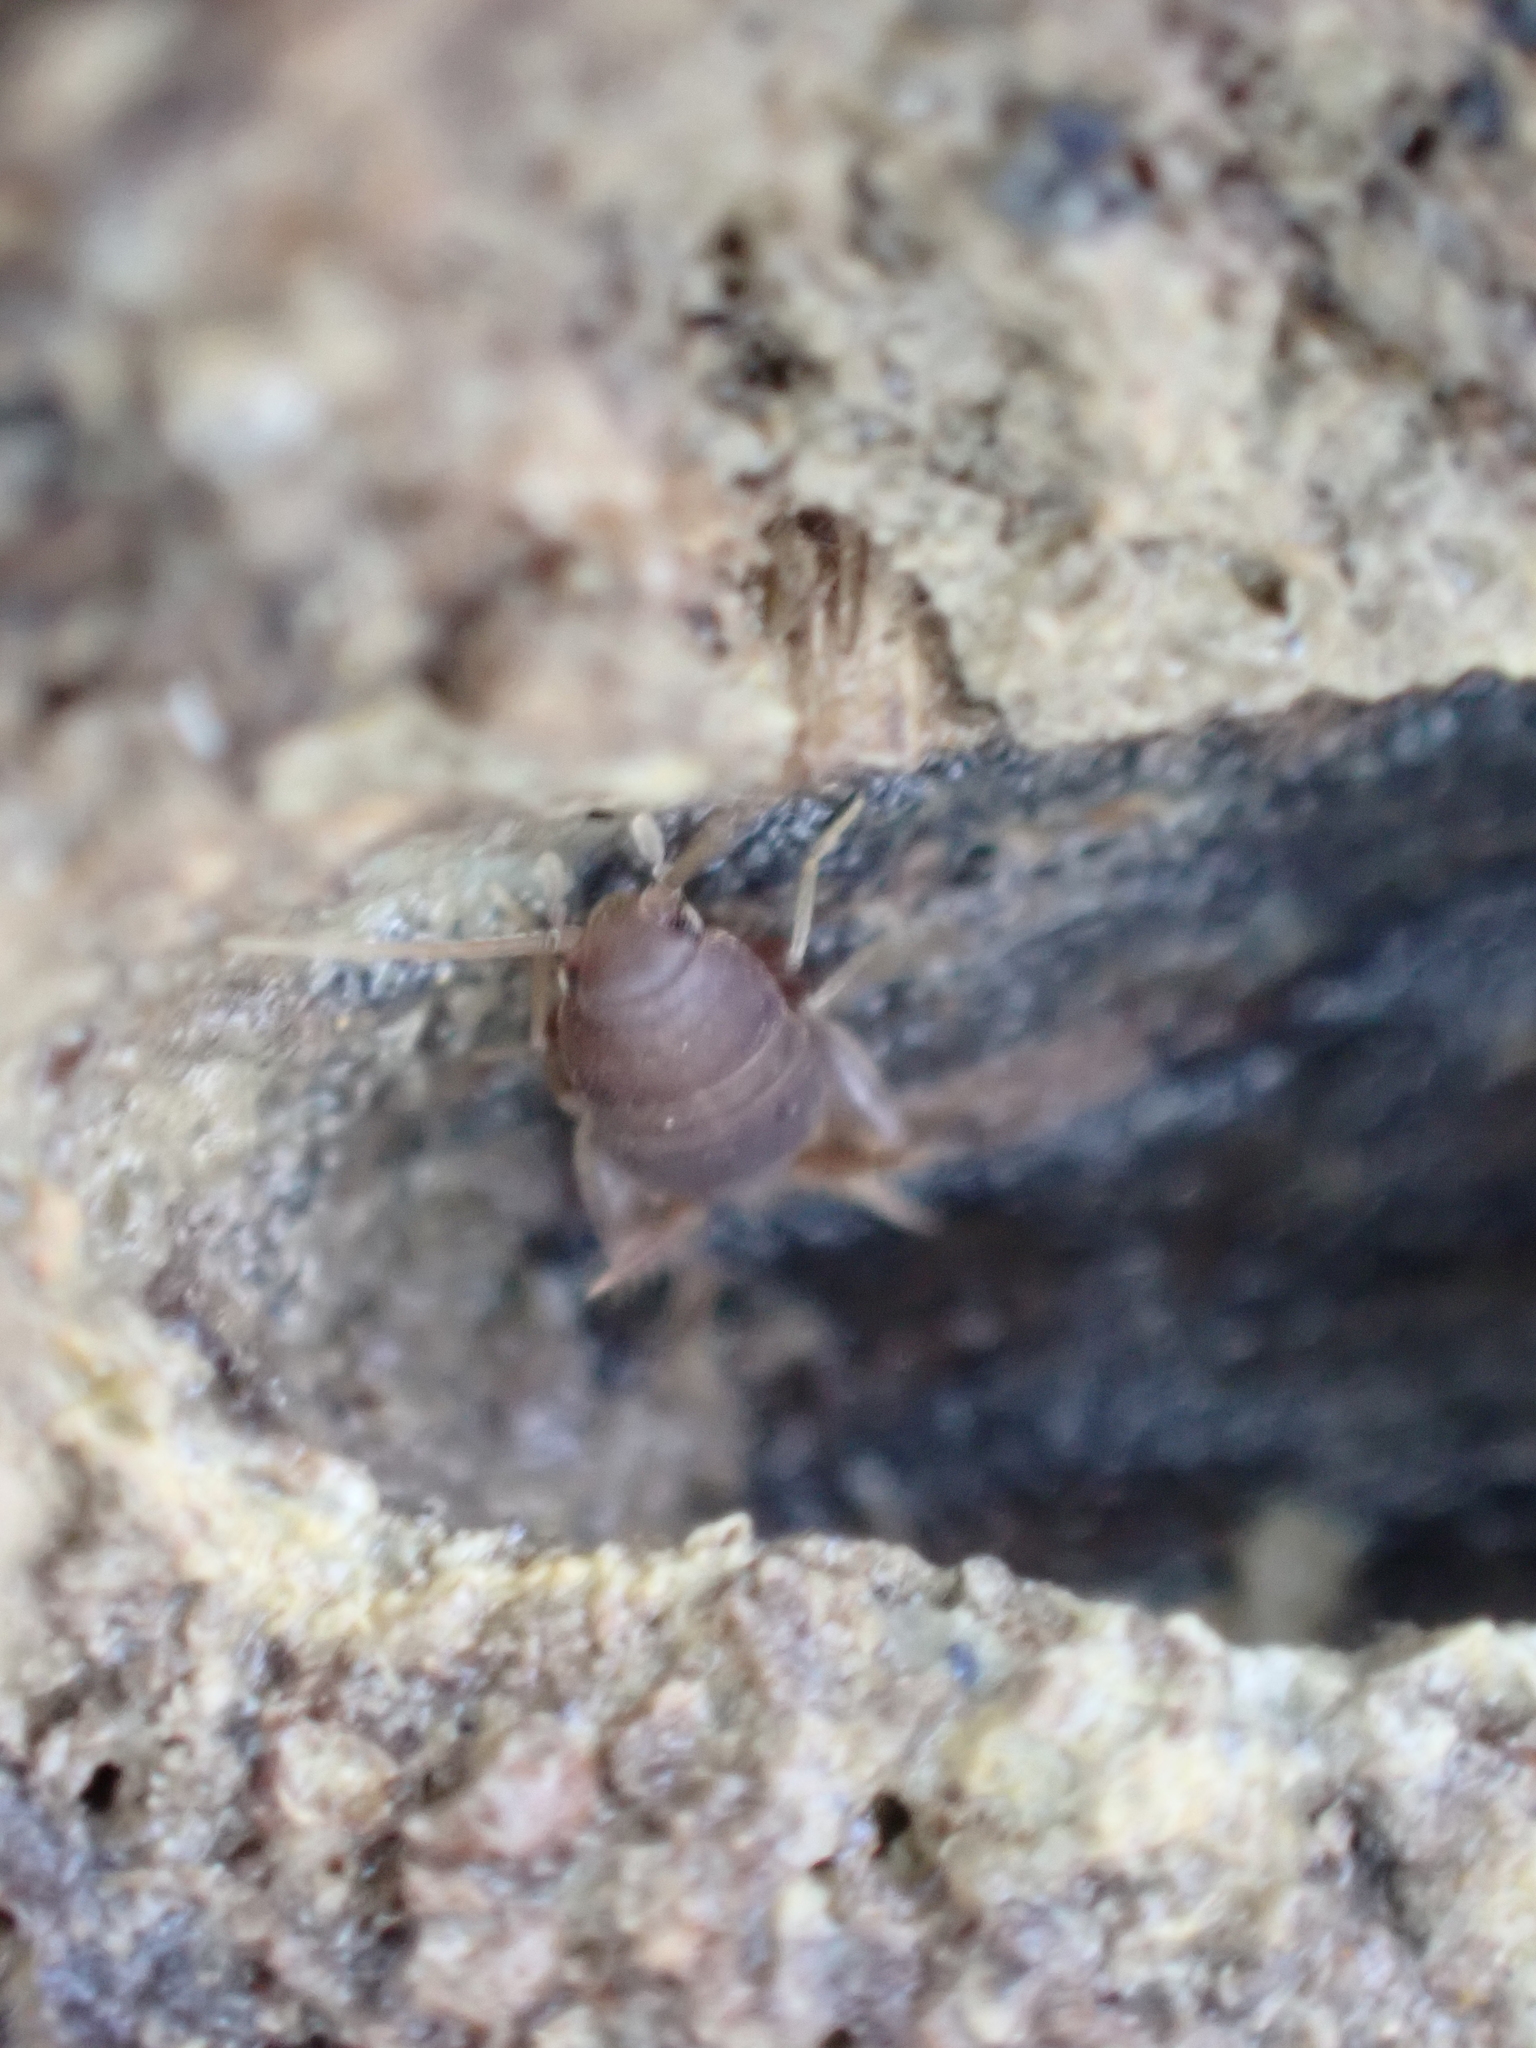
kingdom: Animalia
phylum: Arthropoda
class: Insecta
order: Orthoptera
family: Myrmecophilidae
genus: Myrmecophilus
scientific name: Myrmecophilus pergandei
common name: Eastern ant cricket
